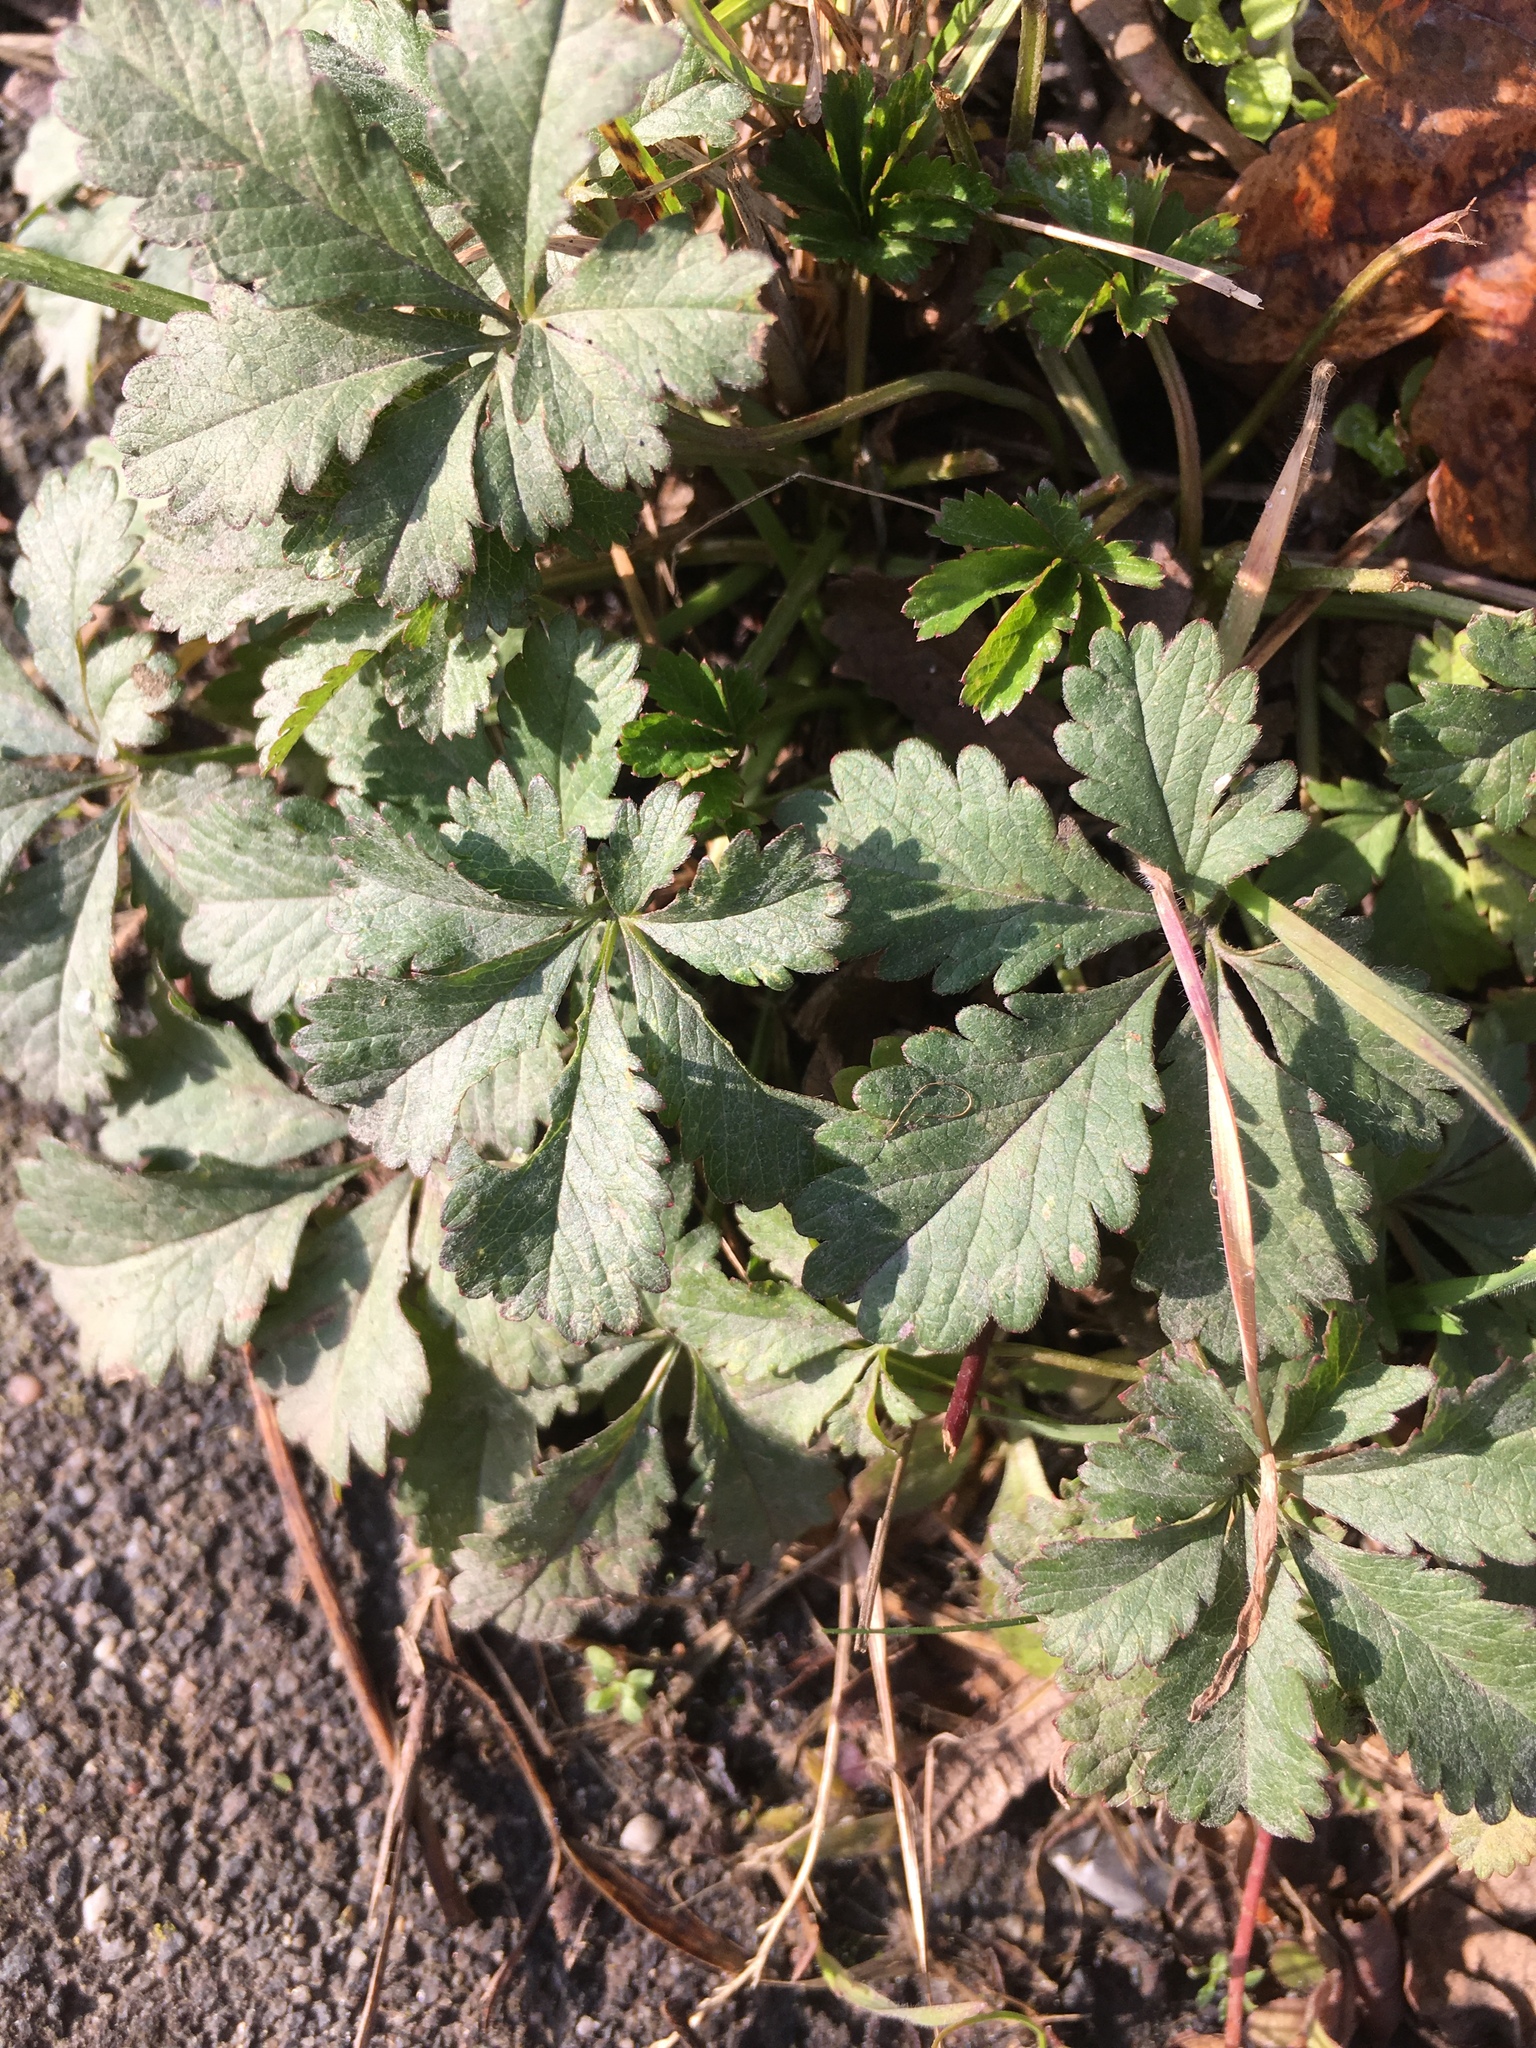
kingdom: Plantae
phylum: Tracheophyta
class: Magnoliopsida
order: Rosales
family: Rosaceae
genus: Potentilla
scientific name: Potentilla reptans
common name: Creeping cinquefoil
